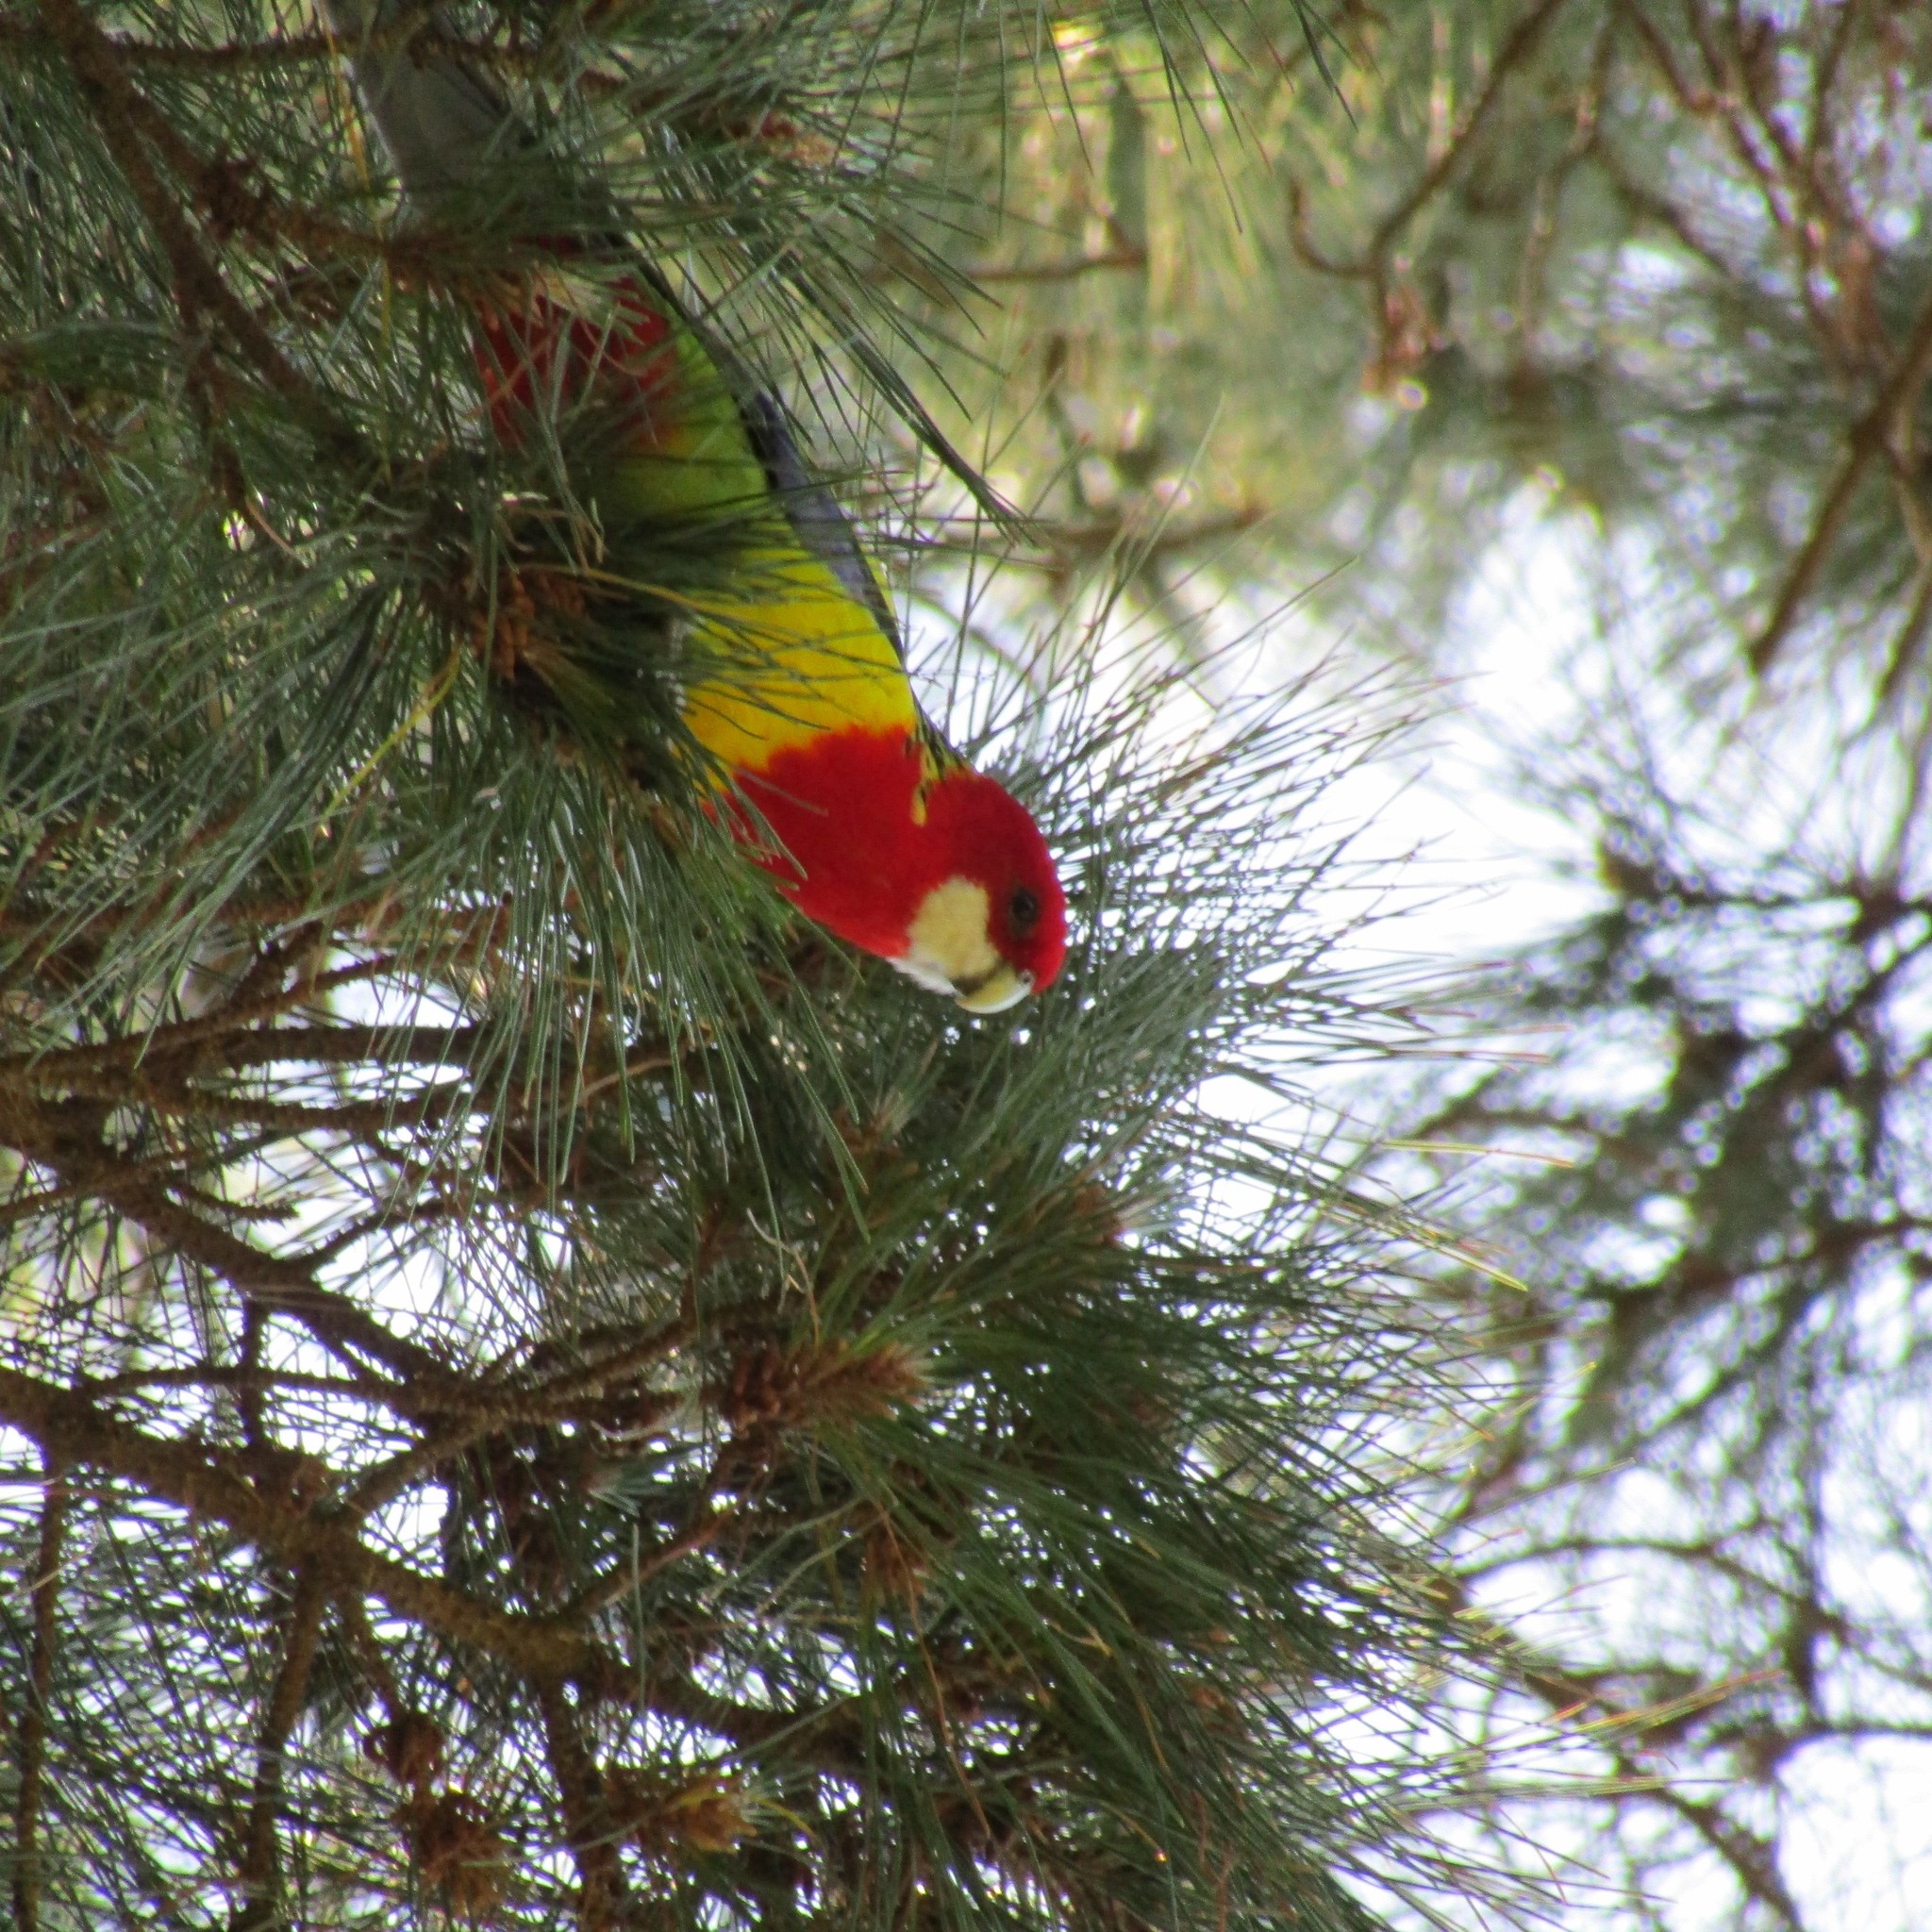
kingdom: Animalia
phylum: Chordata
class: Aves
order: Psittaciformes
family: Psittacidae
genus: Platycercus
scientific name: Platycercus eximius
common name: Eastern rosella
